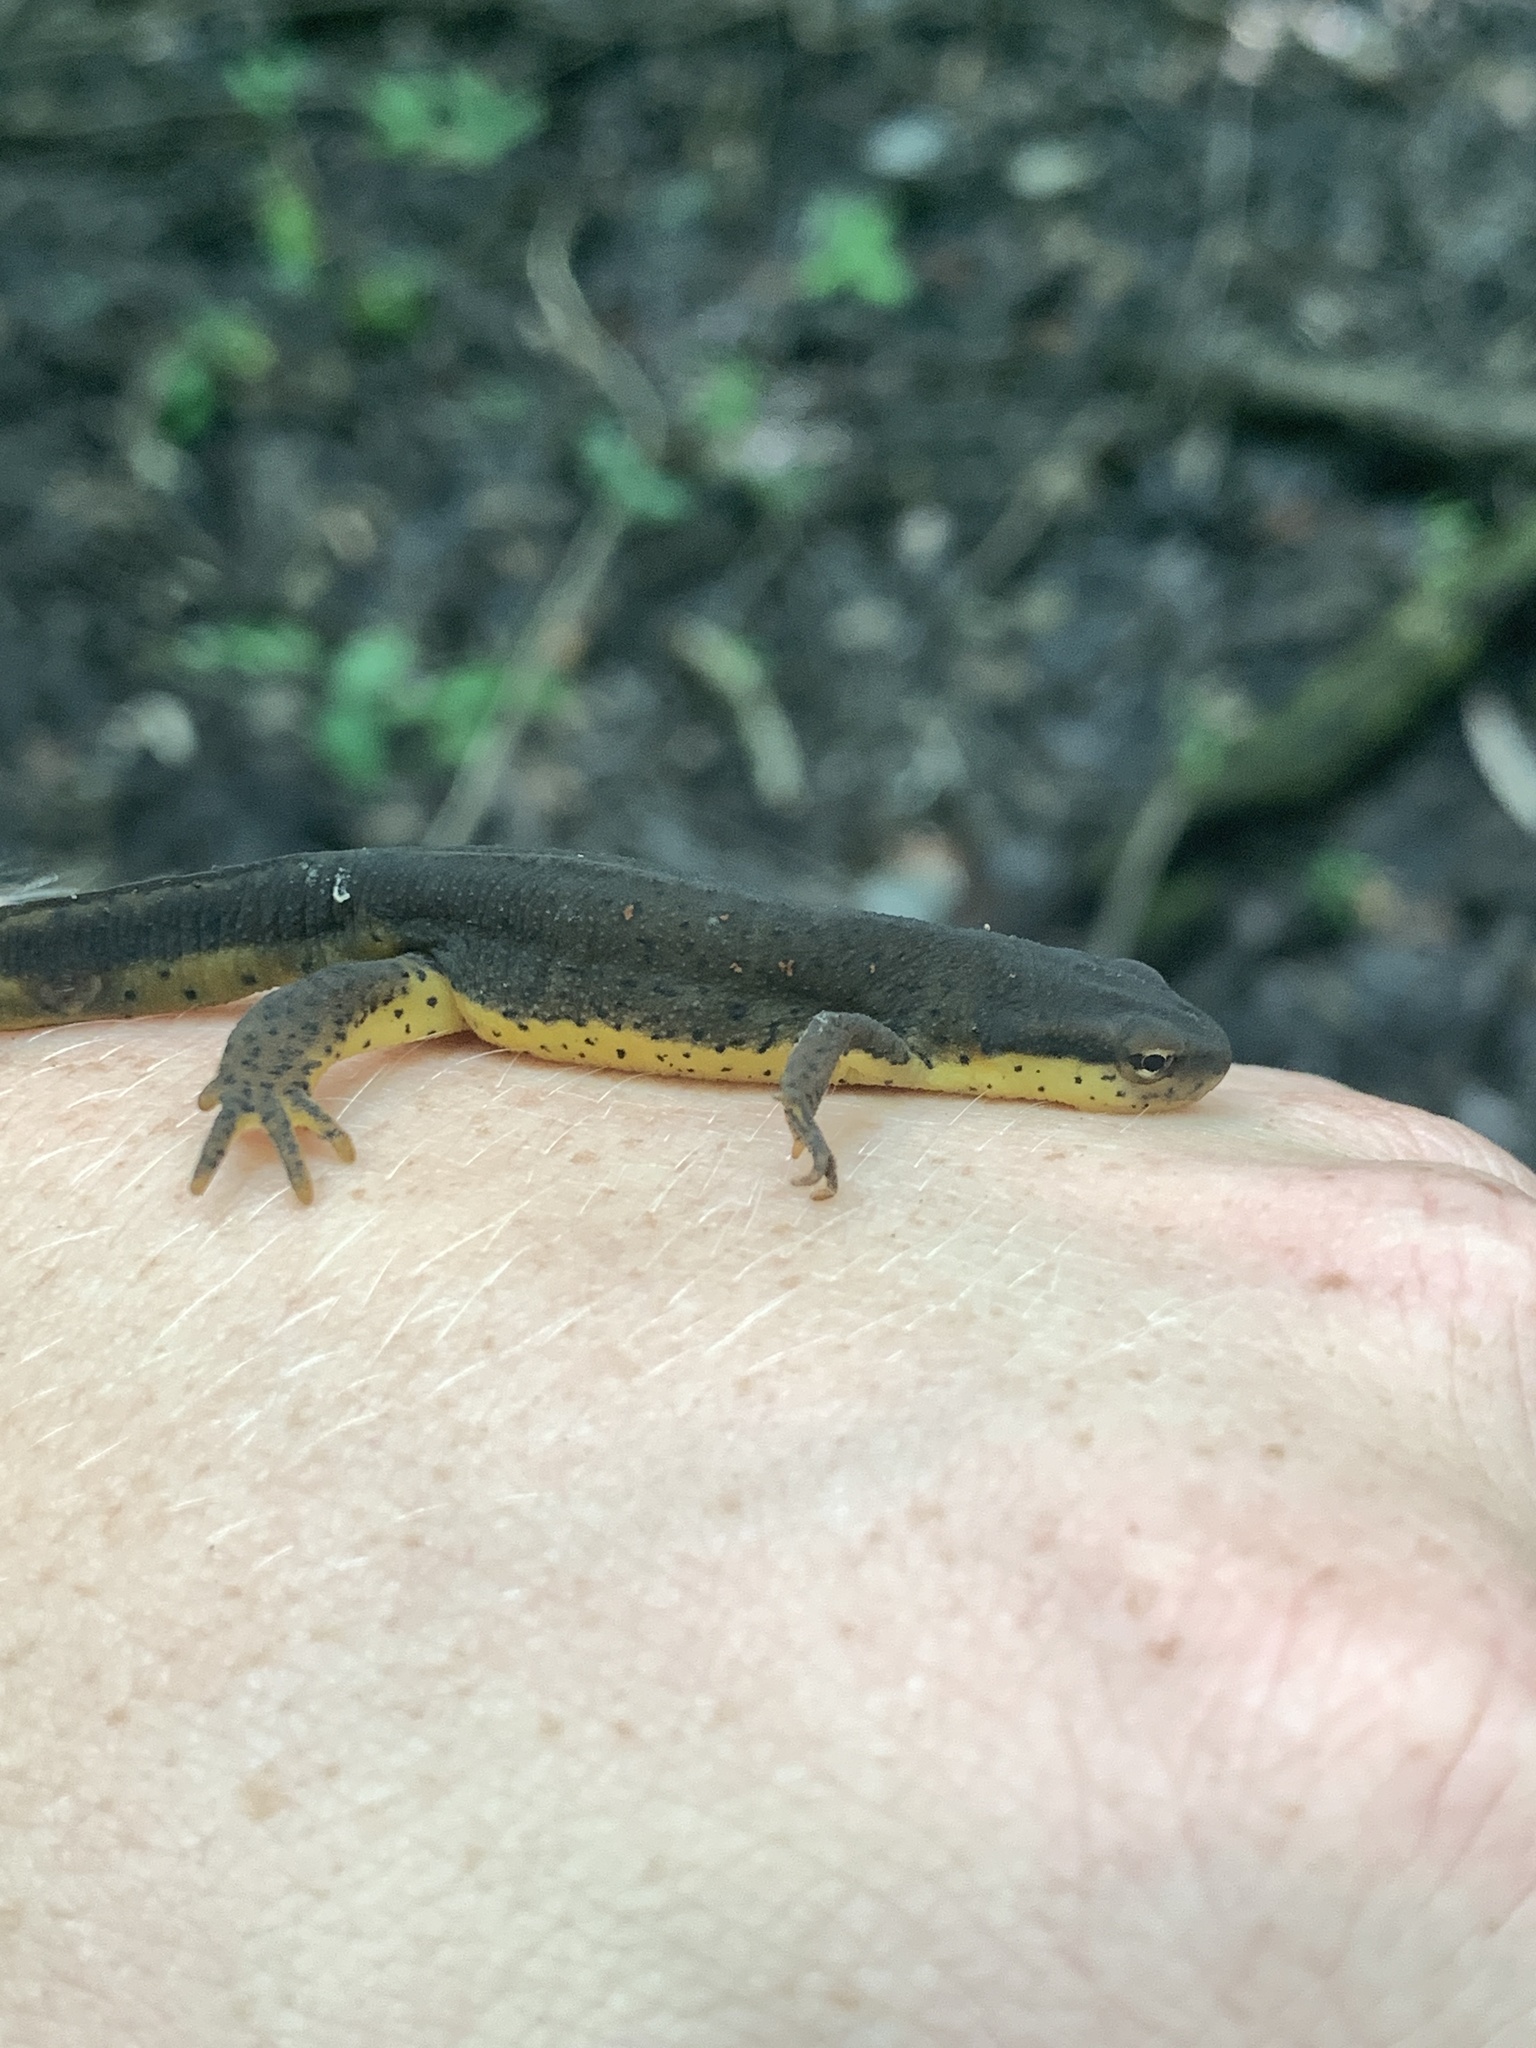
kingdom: Animalia
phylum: Chordata
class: Amphibia
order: Caudata
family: Salamandridae
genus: Notophthalmus
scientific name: Notophthalmus viridescens
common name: Eastern newt
